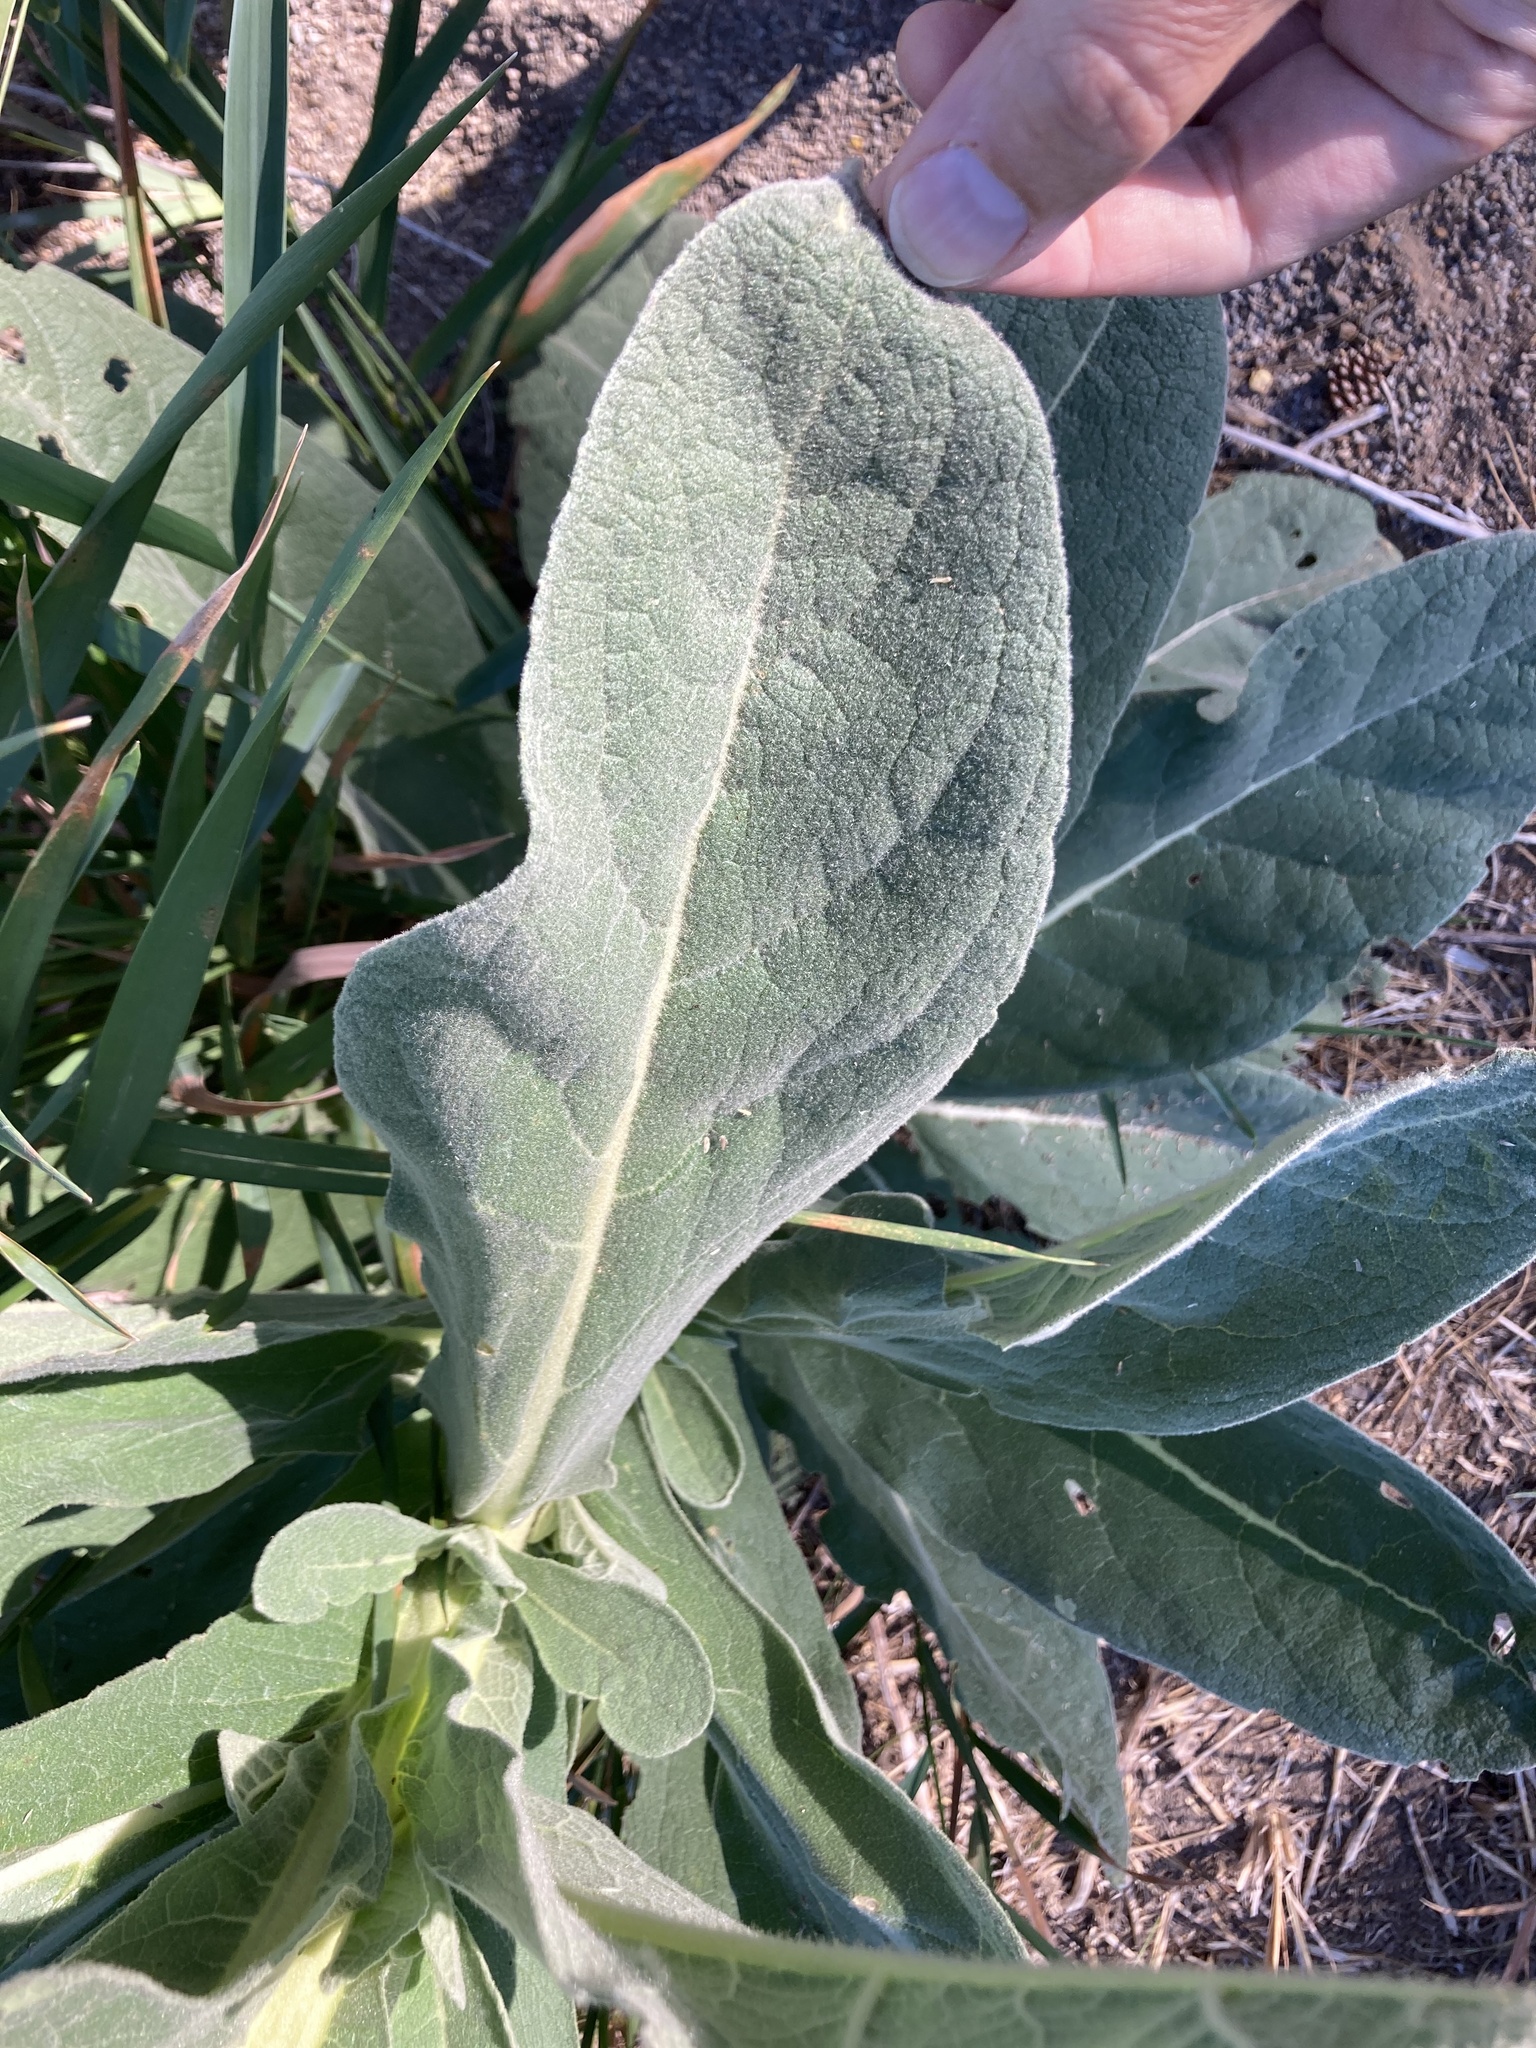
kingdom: Plantae
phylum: Tracheophyta
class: Magnoliopsida
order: Lamiales
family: Scrophulariaceae
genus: Verbascum
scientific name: Verbascum thapsus
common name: Common mullein
